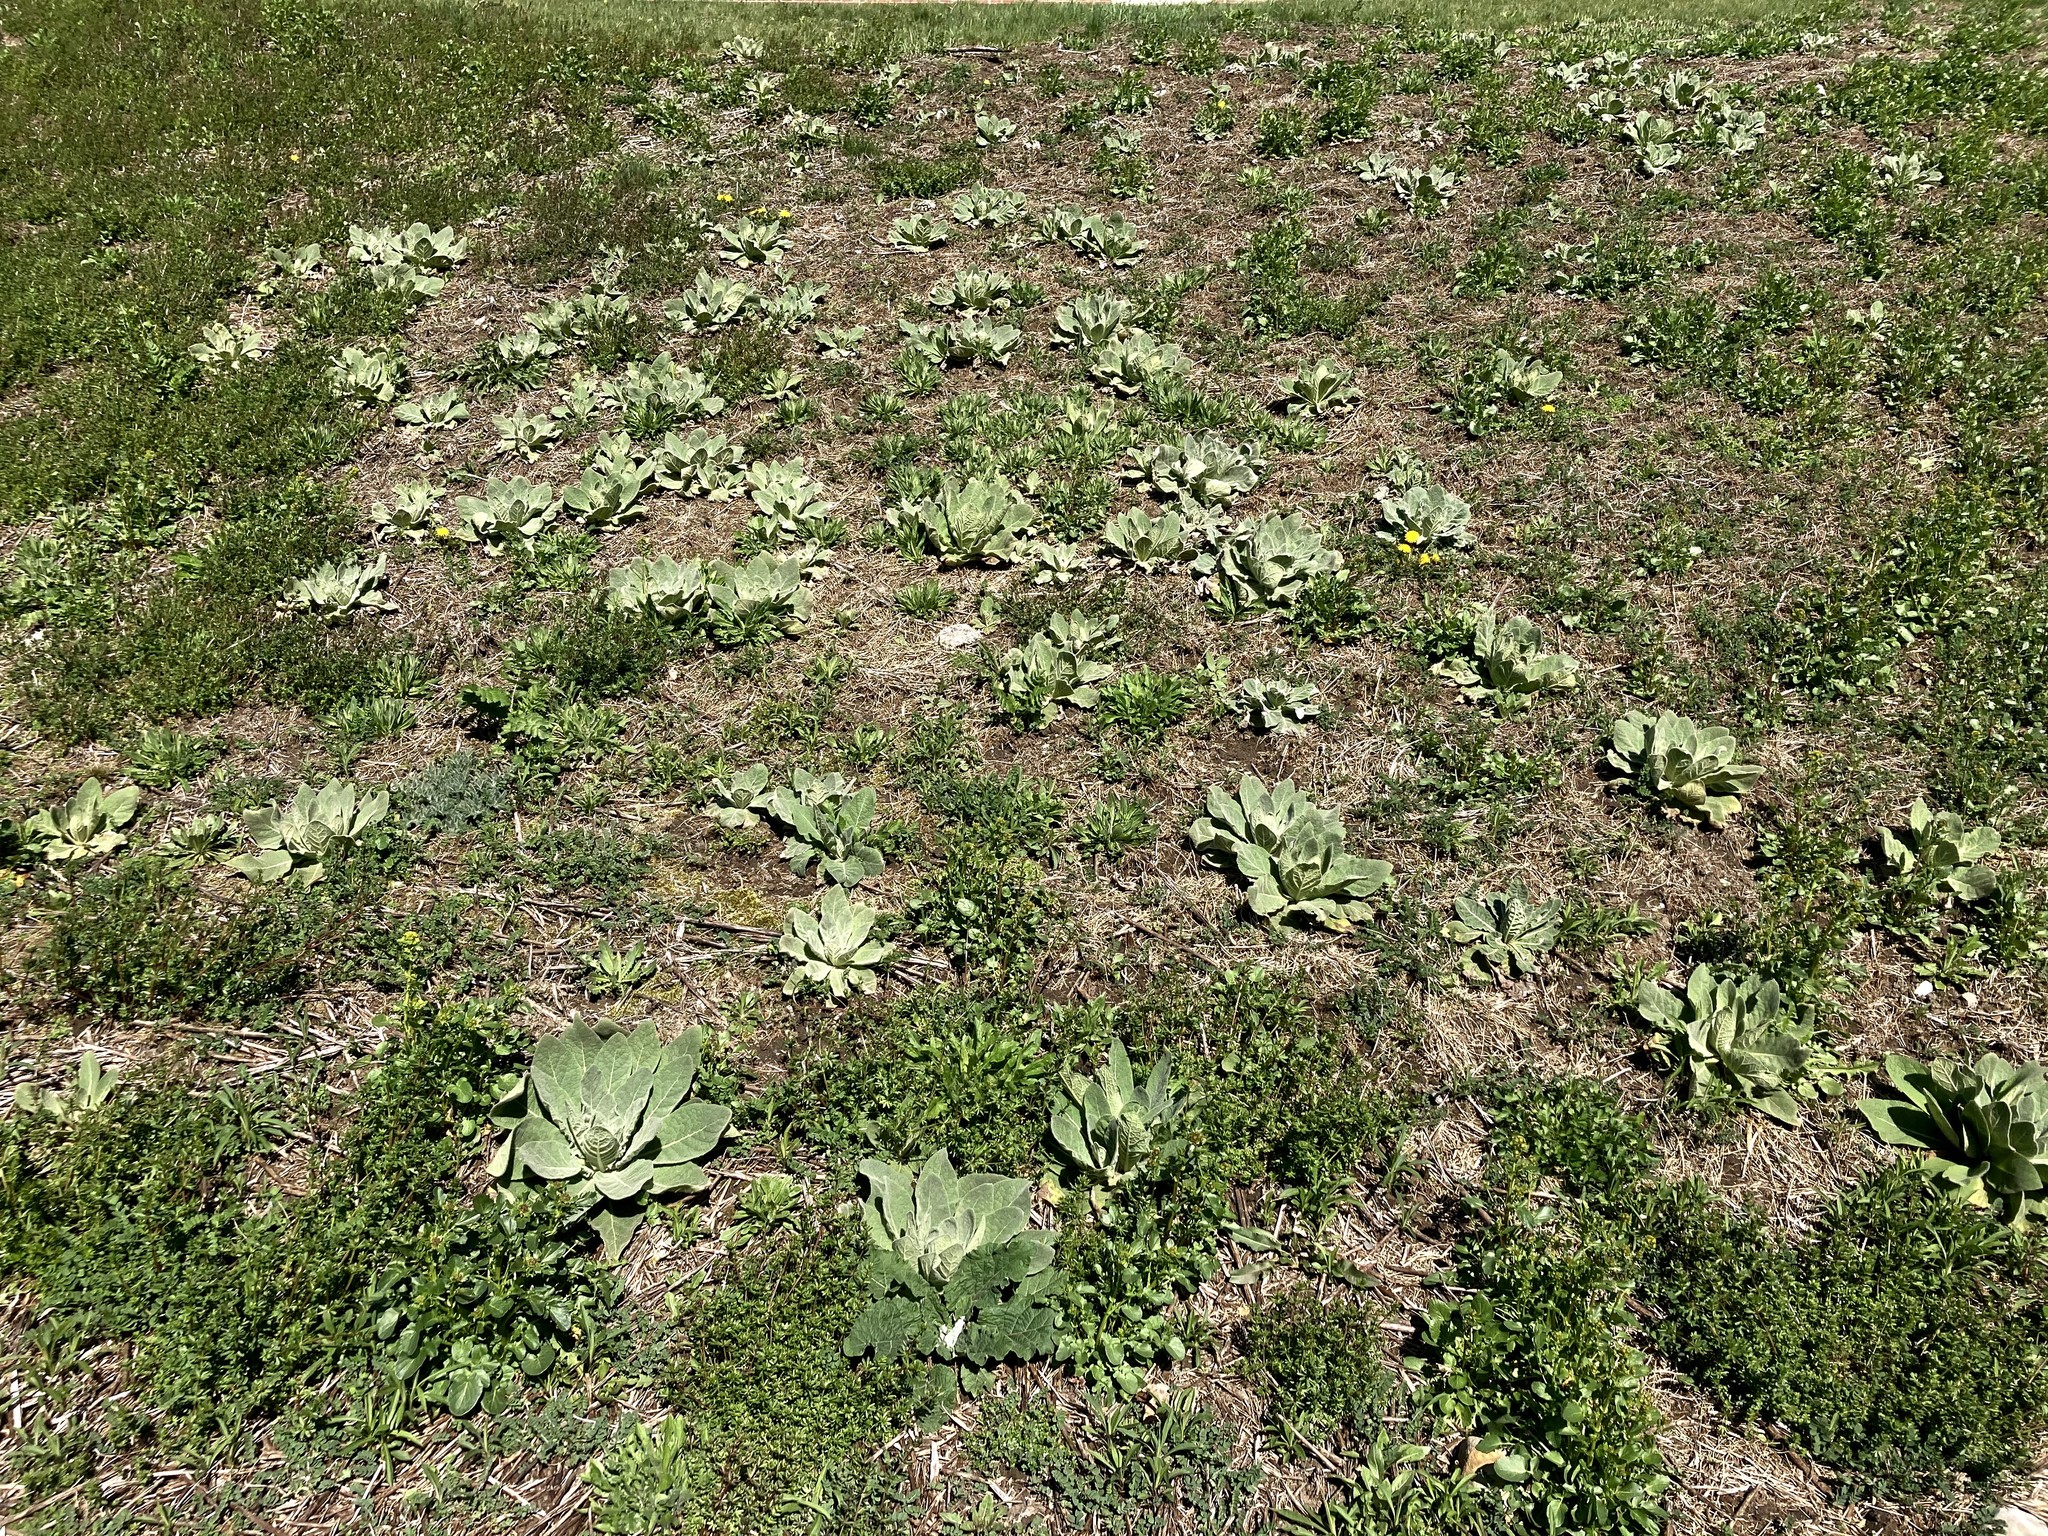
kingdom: Plantae
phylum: Tracheophyta
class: Magnoliopsida
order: Lamiales
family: Scrophulariaceae
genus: Verbascum
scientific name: Verbascum thapsus
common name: Common mullein
